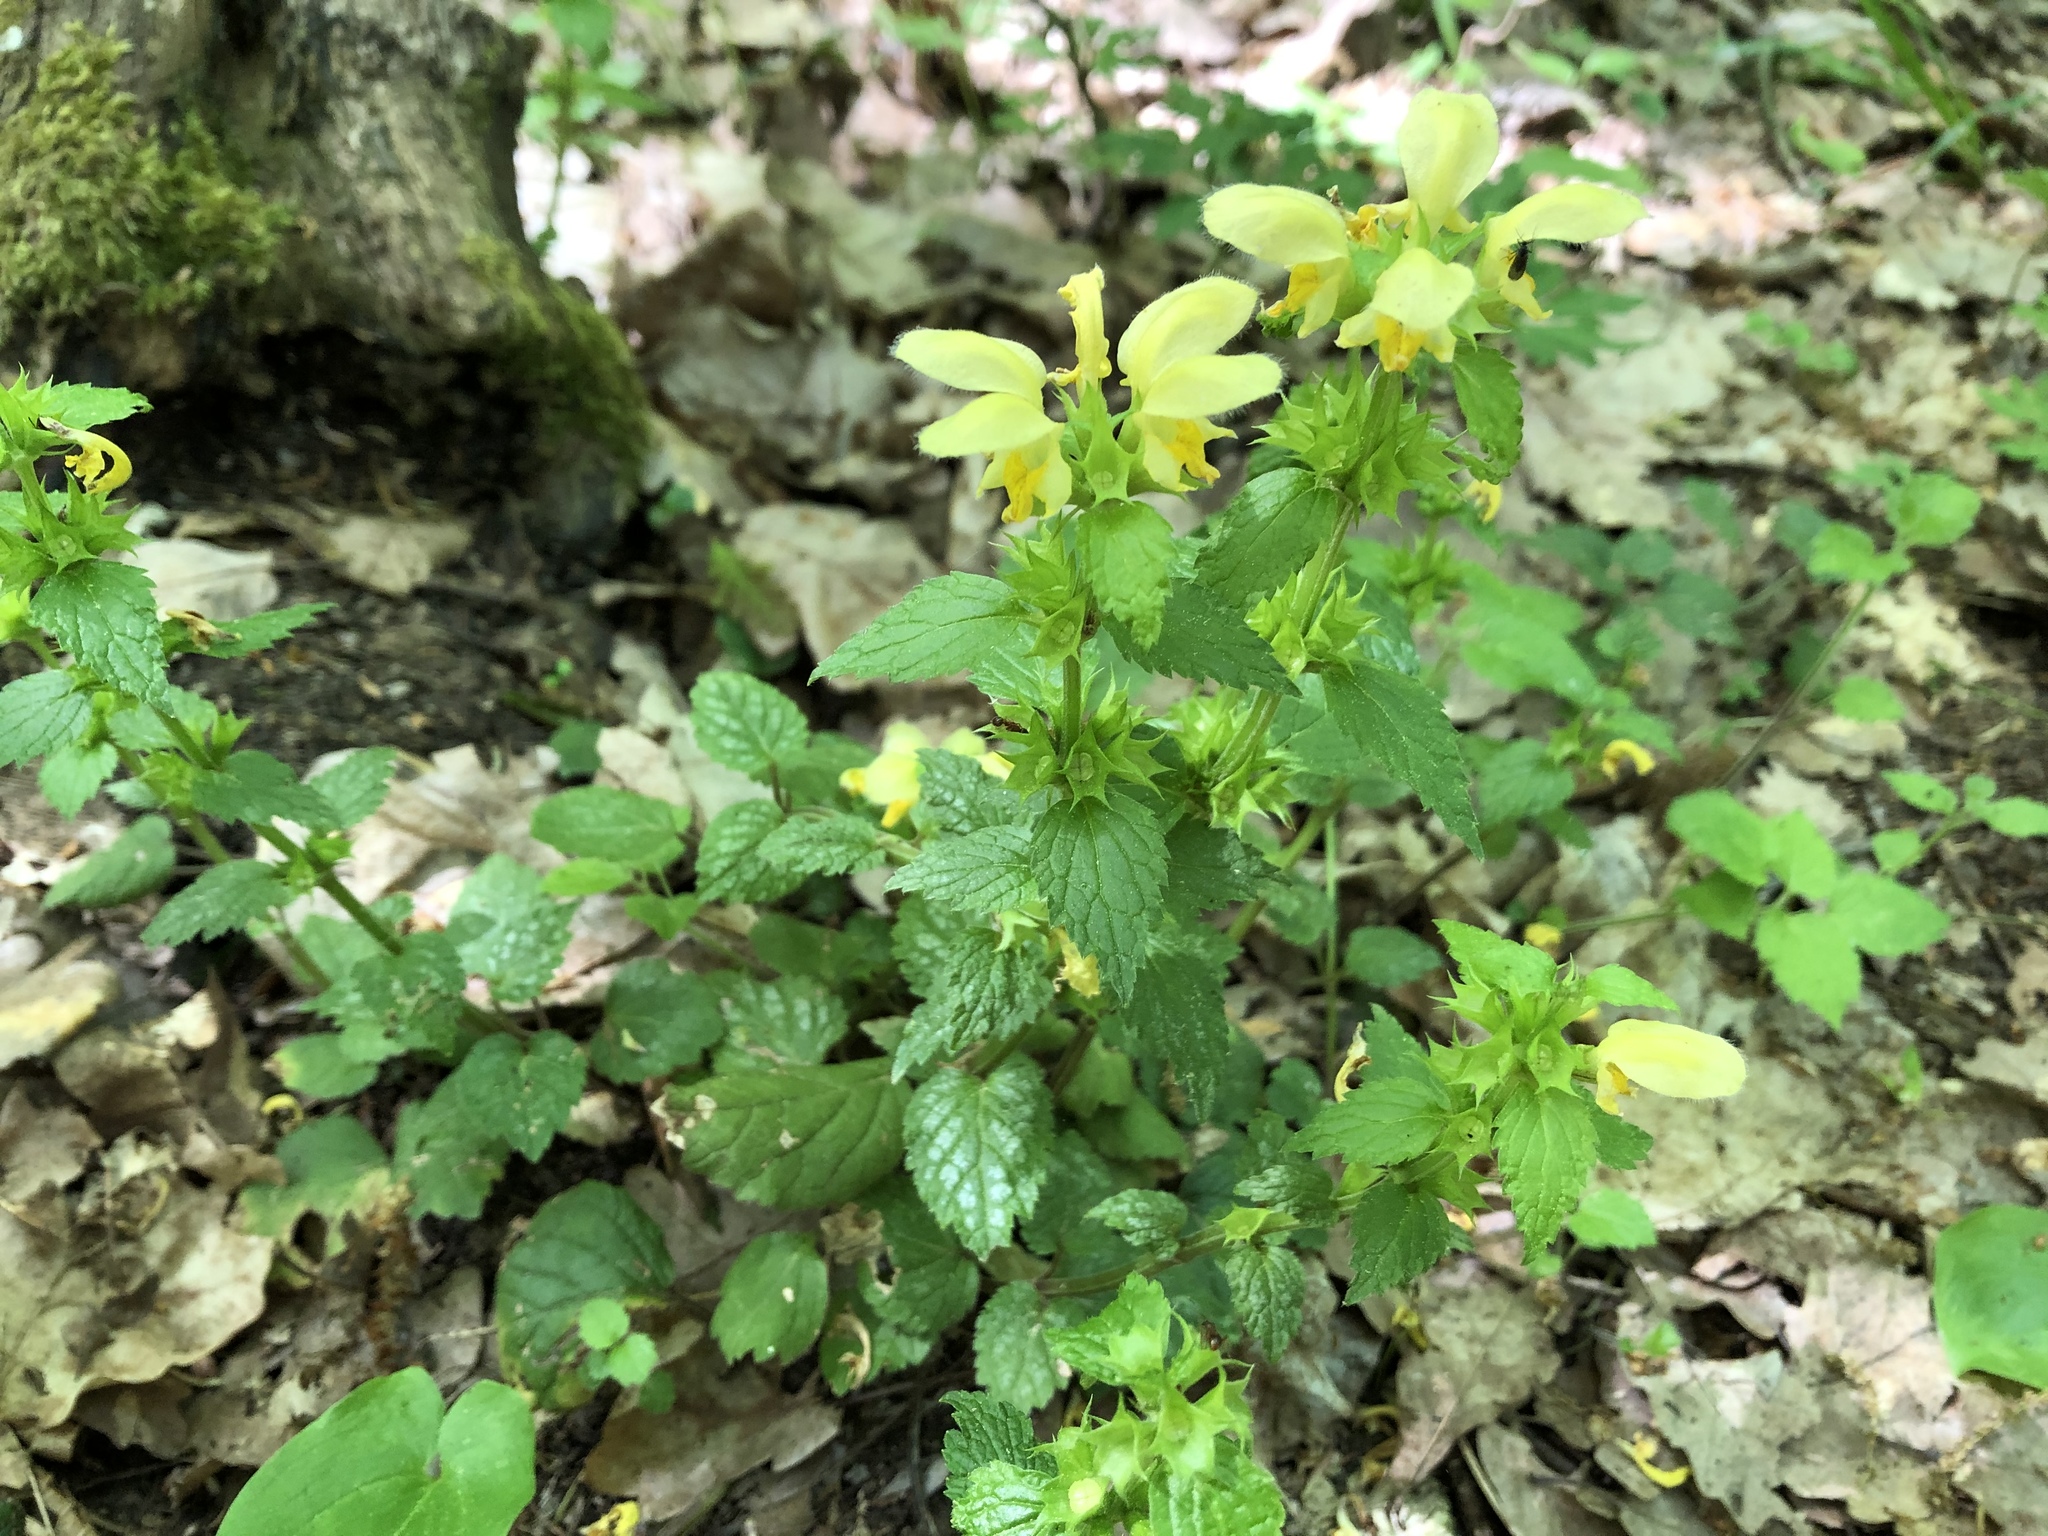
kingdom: Plantae
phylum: Tracheophyta
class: Magnoliopsida
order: Lamiales
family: Lamiaceae
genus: Lamium
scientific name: Lamium galeobdolon
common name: Yellow archangel
